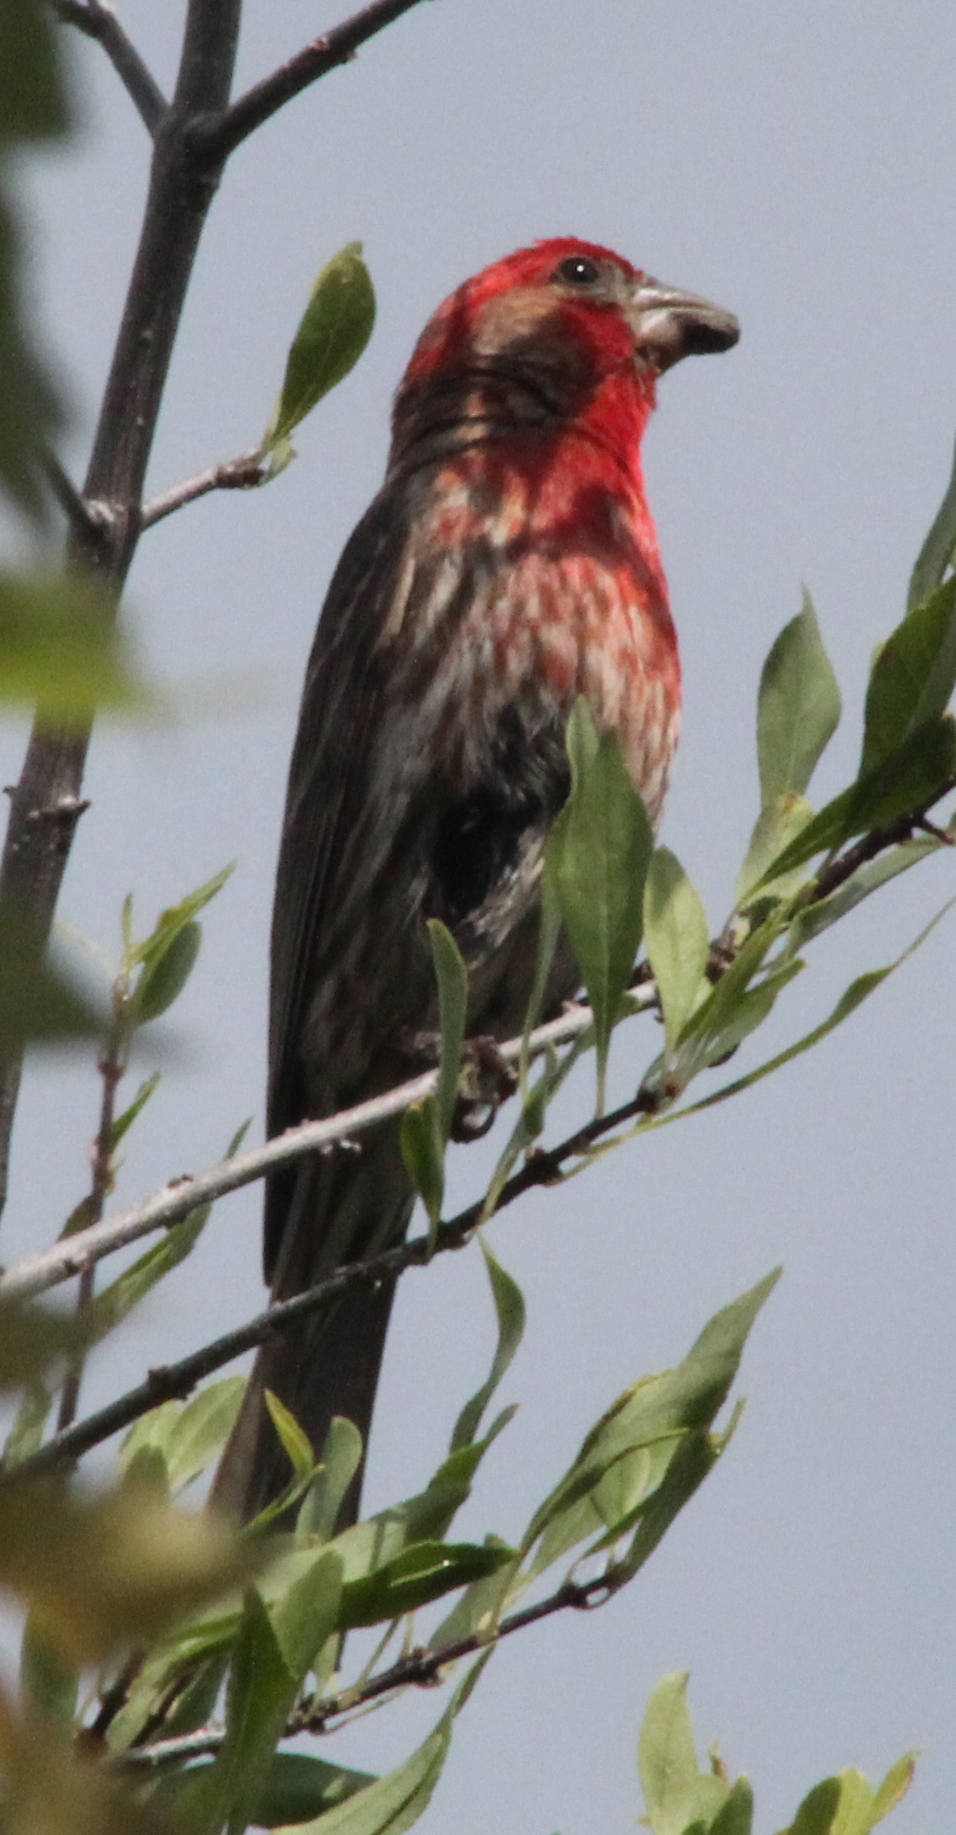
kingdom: Animalia
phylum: Chordata
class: Aves
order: Passeriformes
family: Fringillidae
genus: Haemorhous
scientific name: Haemorhous mexicanus
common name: House finch
